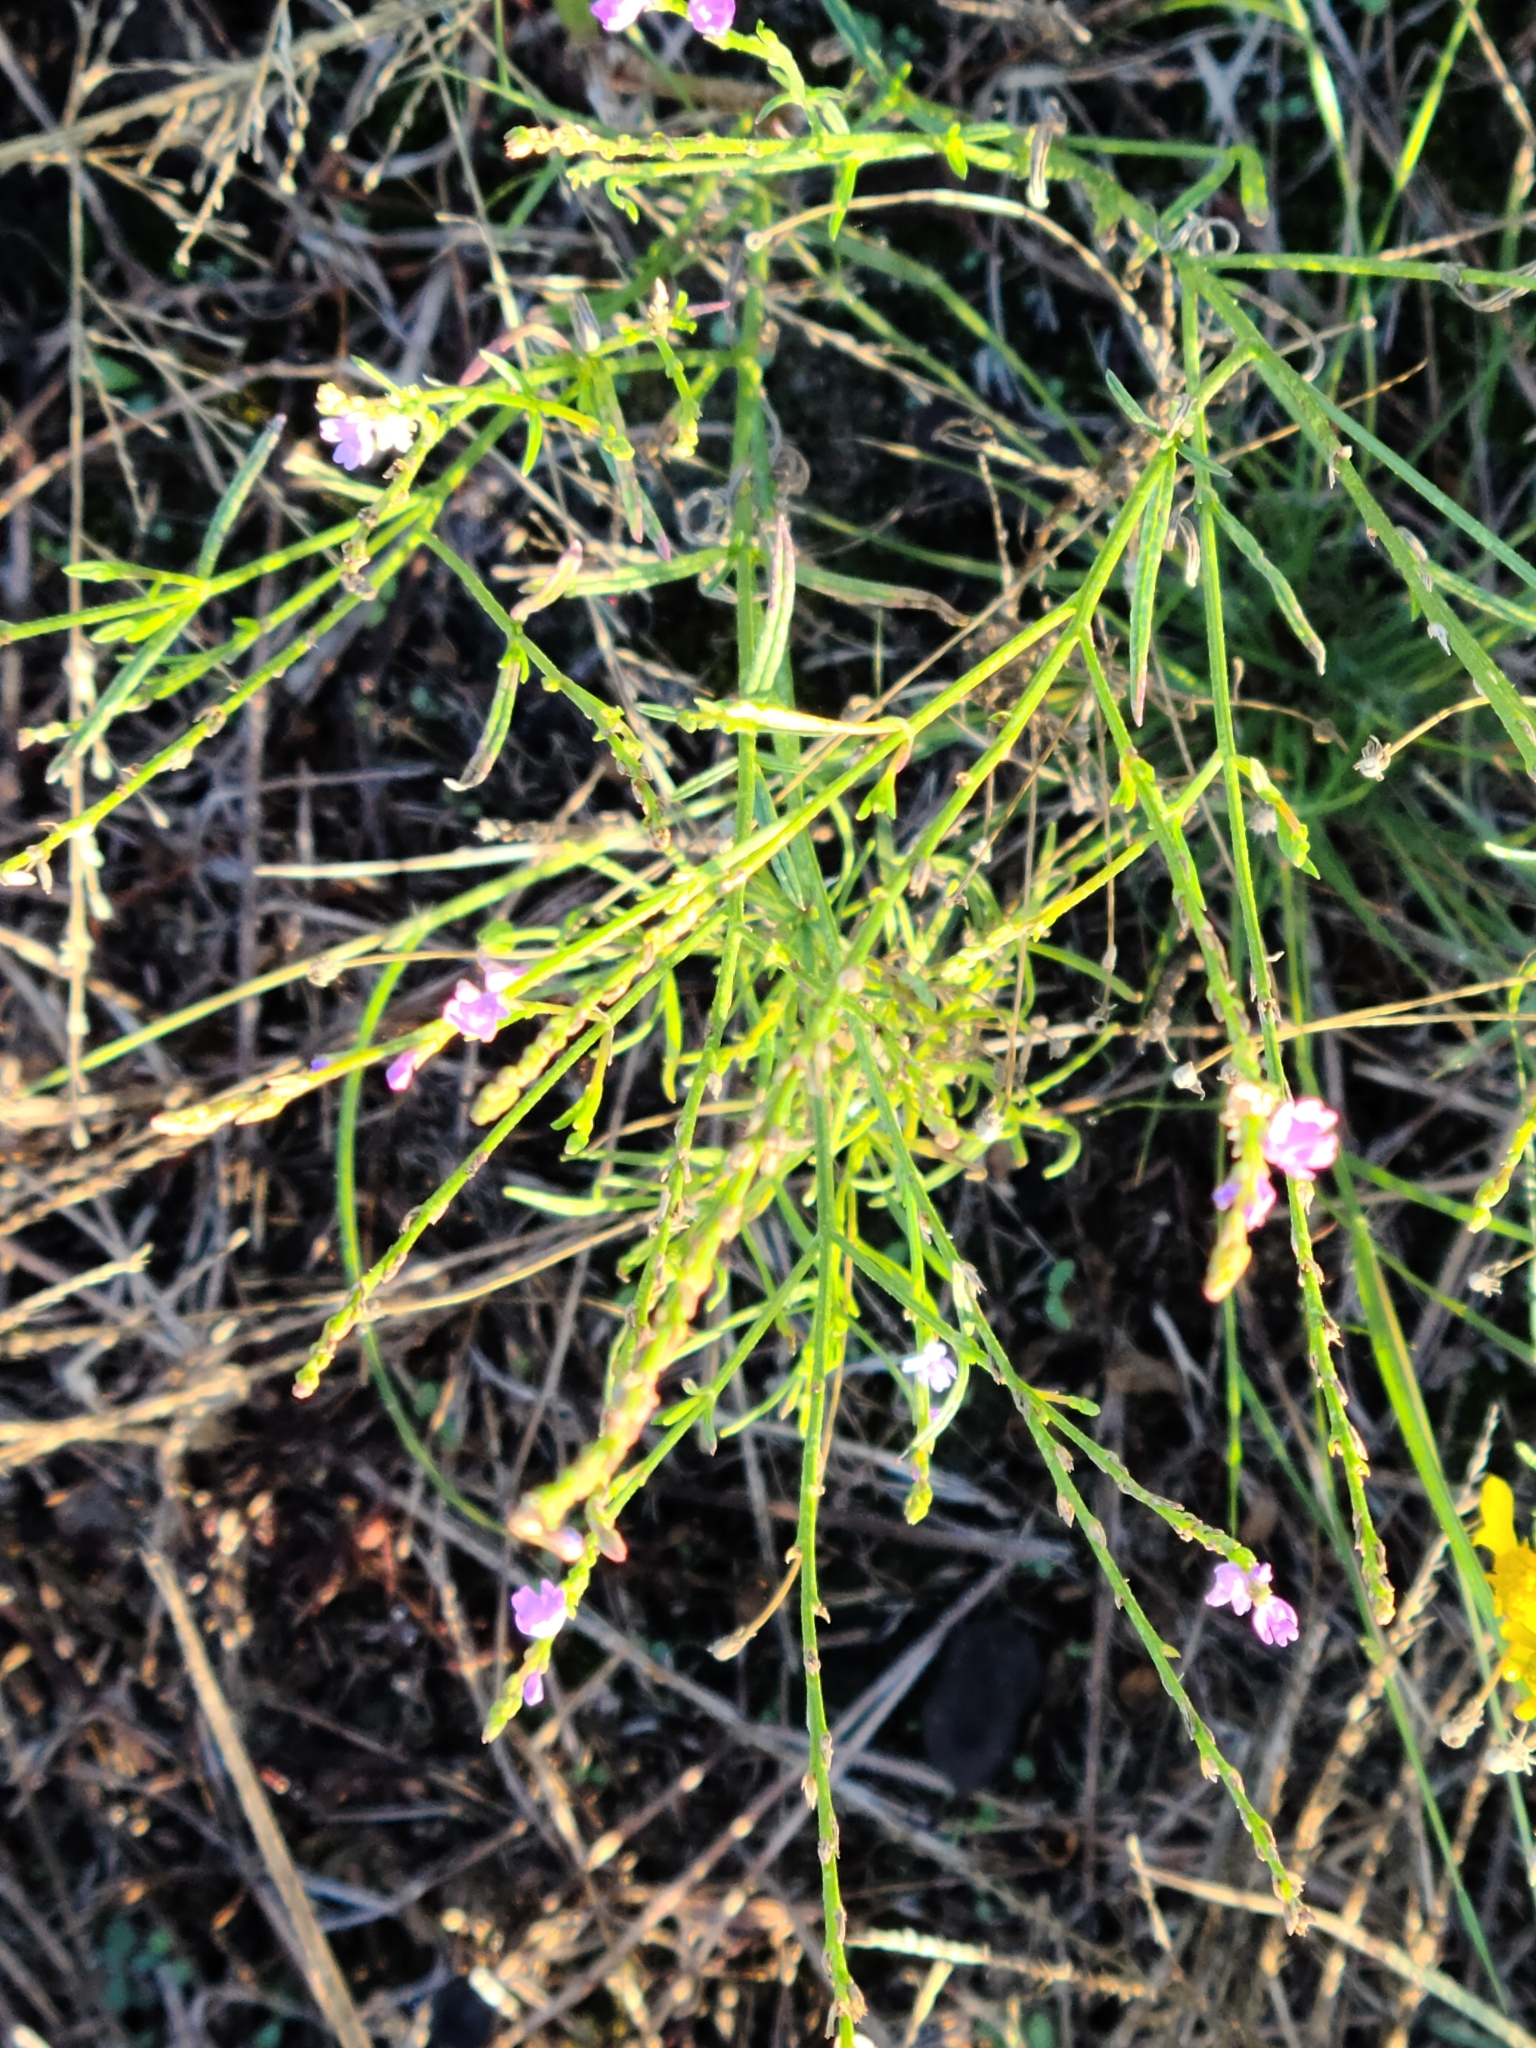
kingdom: Plantae
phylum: Tracheophyta
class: Magnoliopsida
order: Lamiales
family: Verbenaceae
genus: Verbena
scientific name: Verbena halei
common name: Texas vervain
